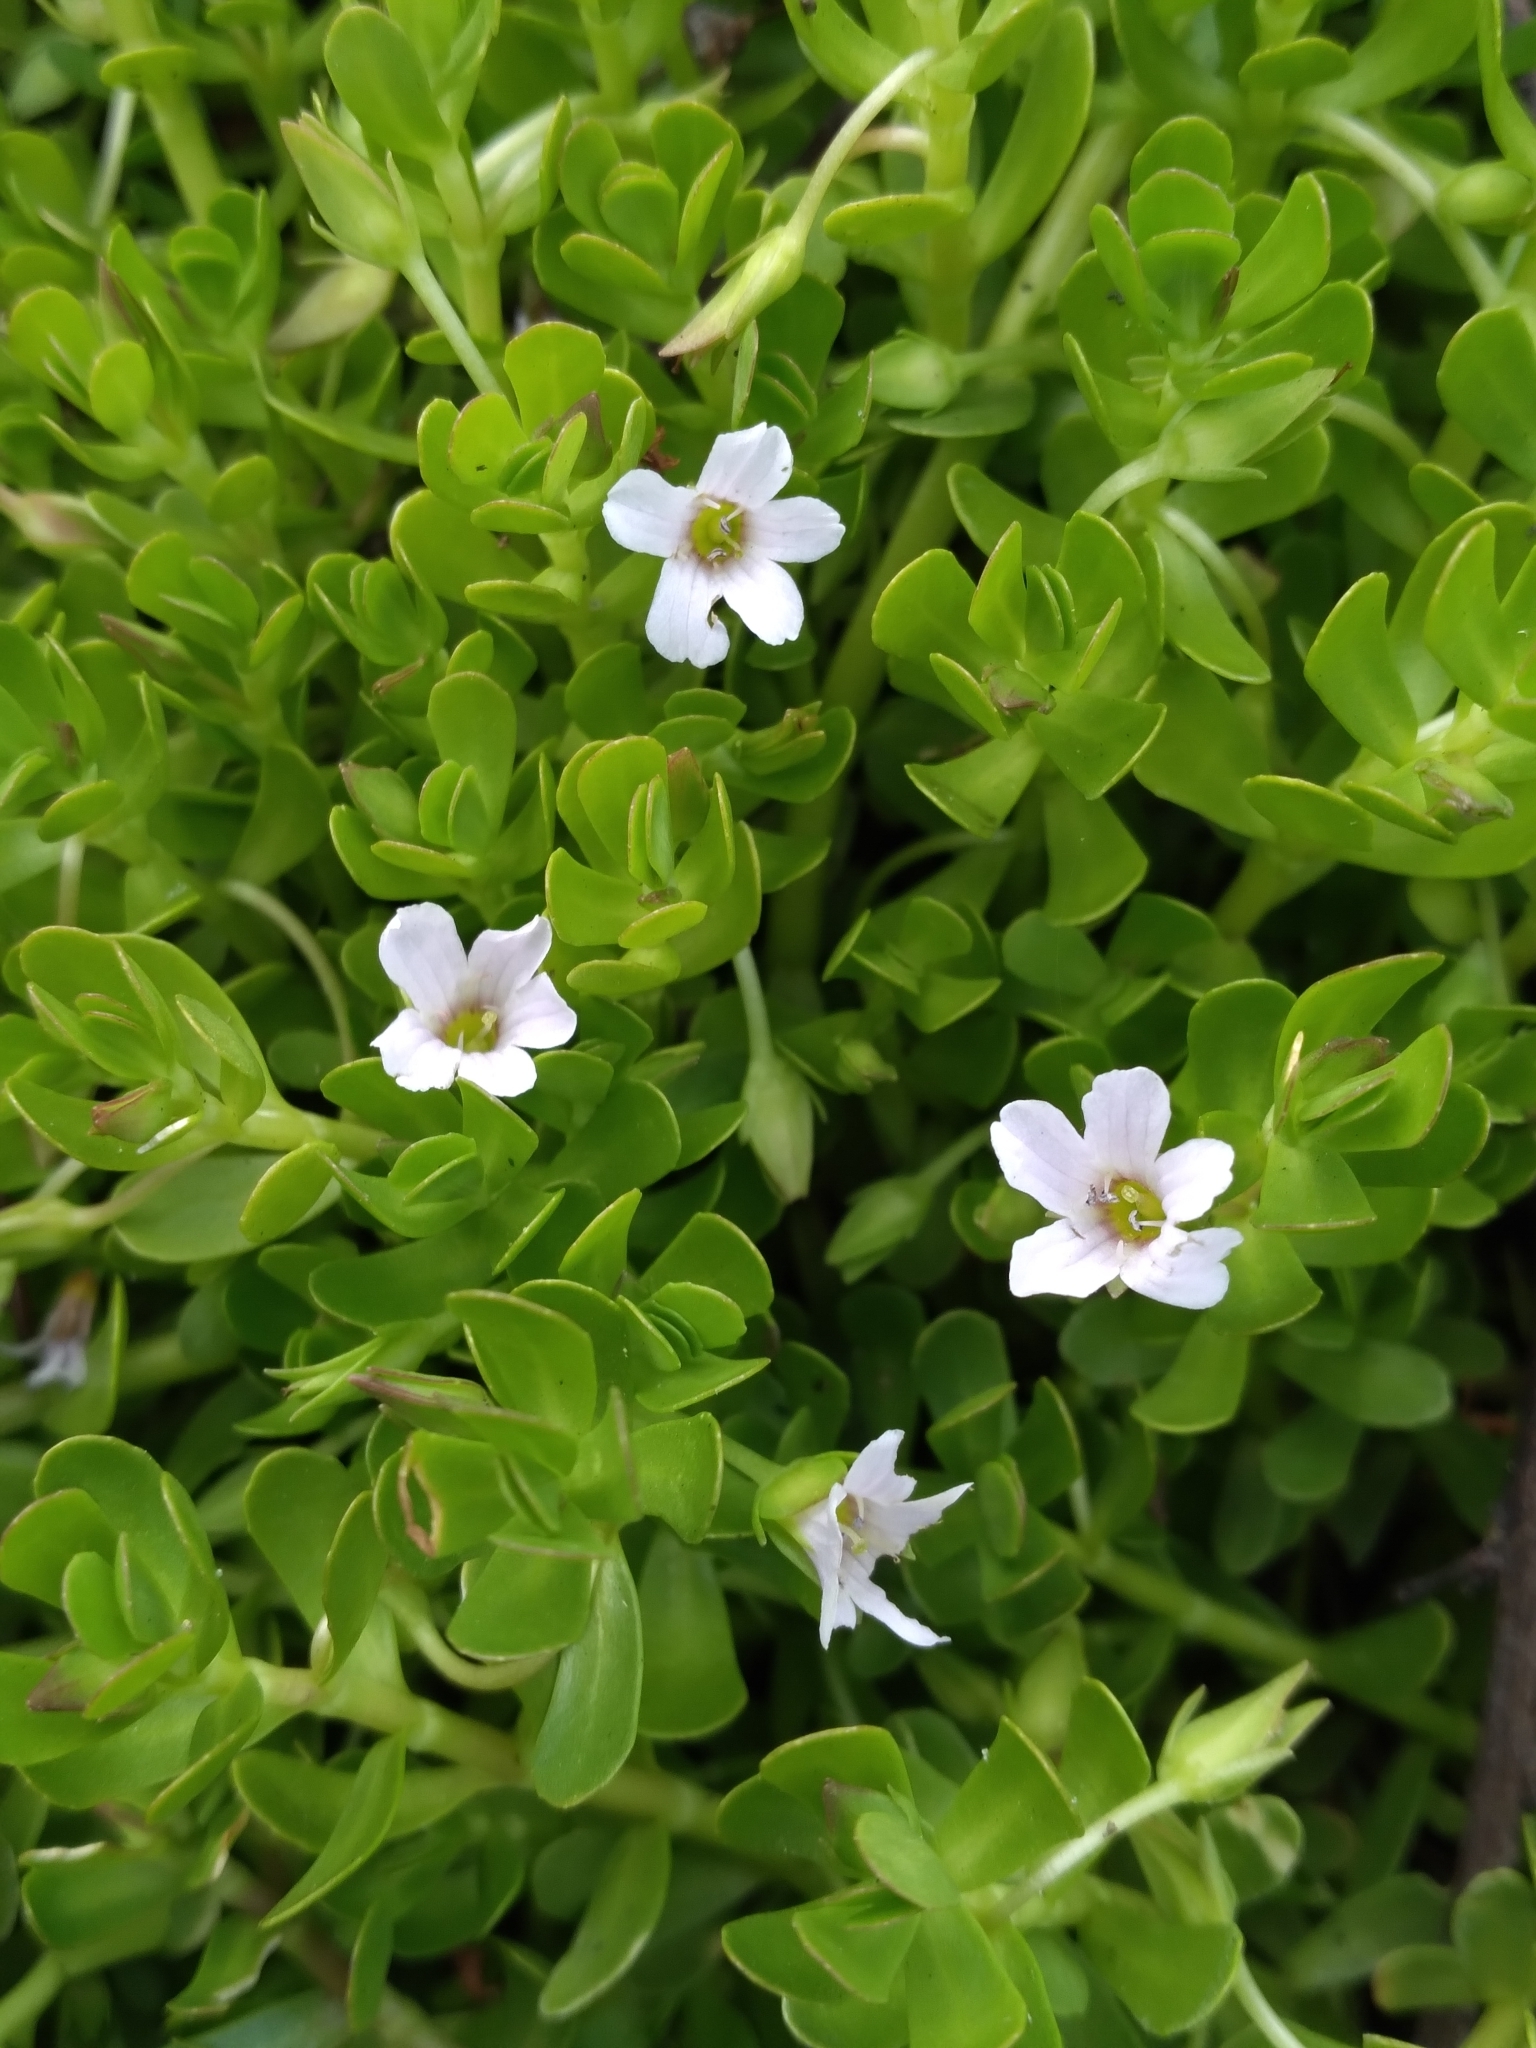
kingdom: Plantae
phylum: Tracheophyta
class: Magnoliopsida
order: Lamiales
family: Plantaginaceae
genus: Bacopa
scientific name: Bacopa monnieri
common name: Indian-pennywort
